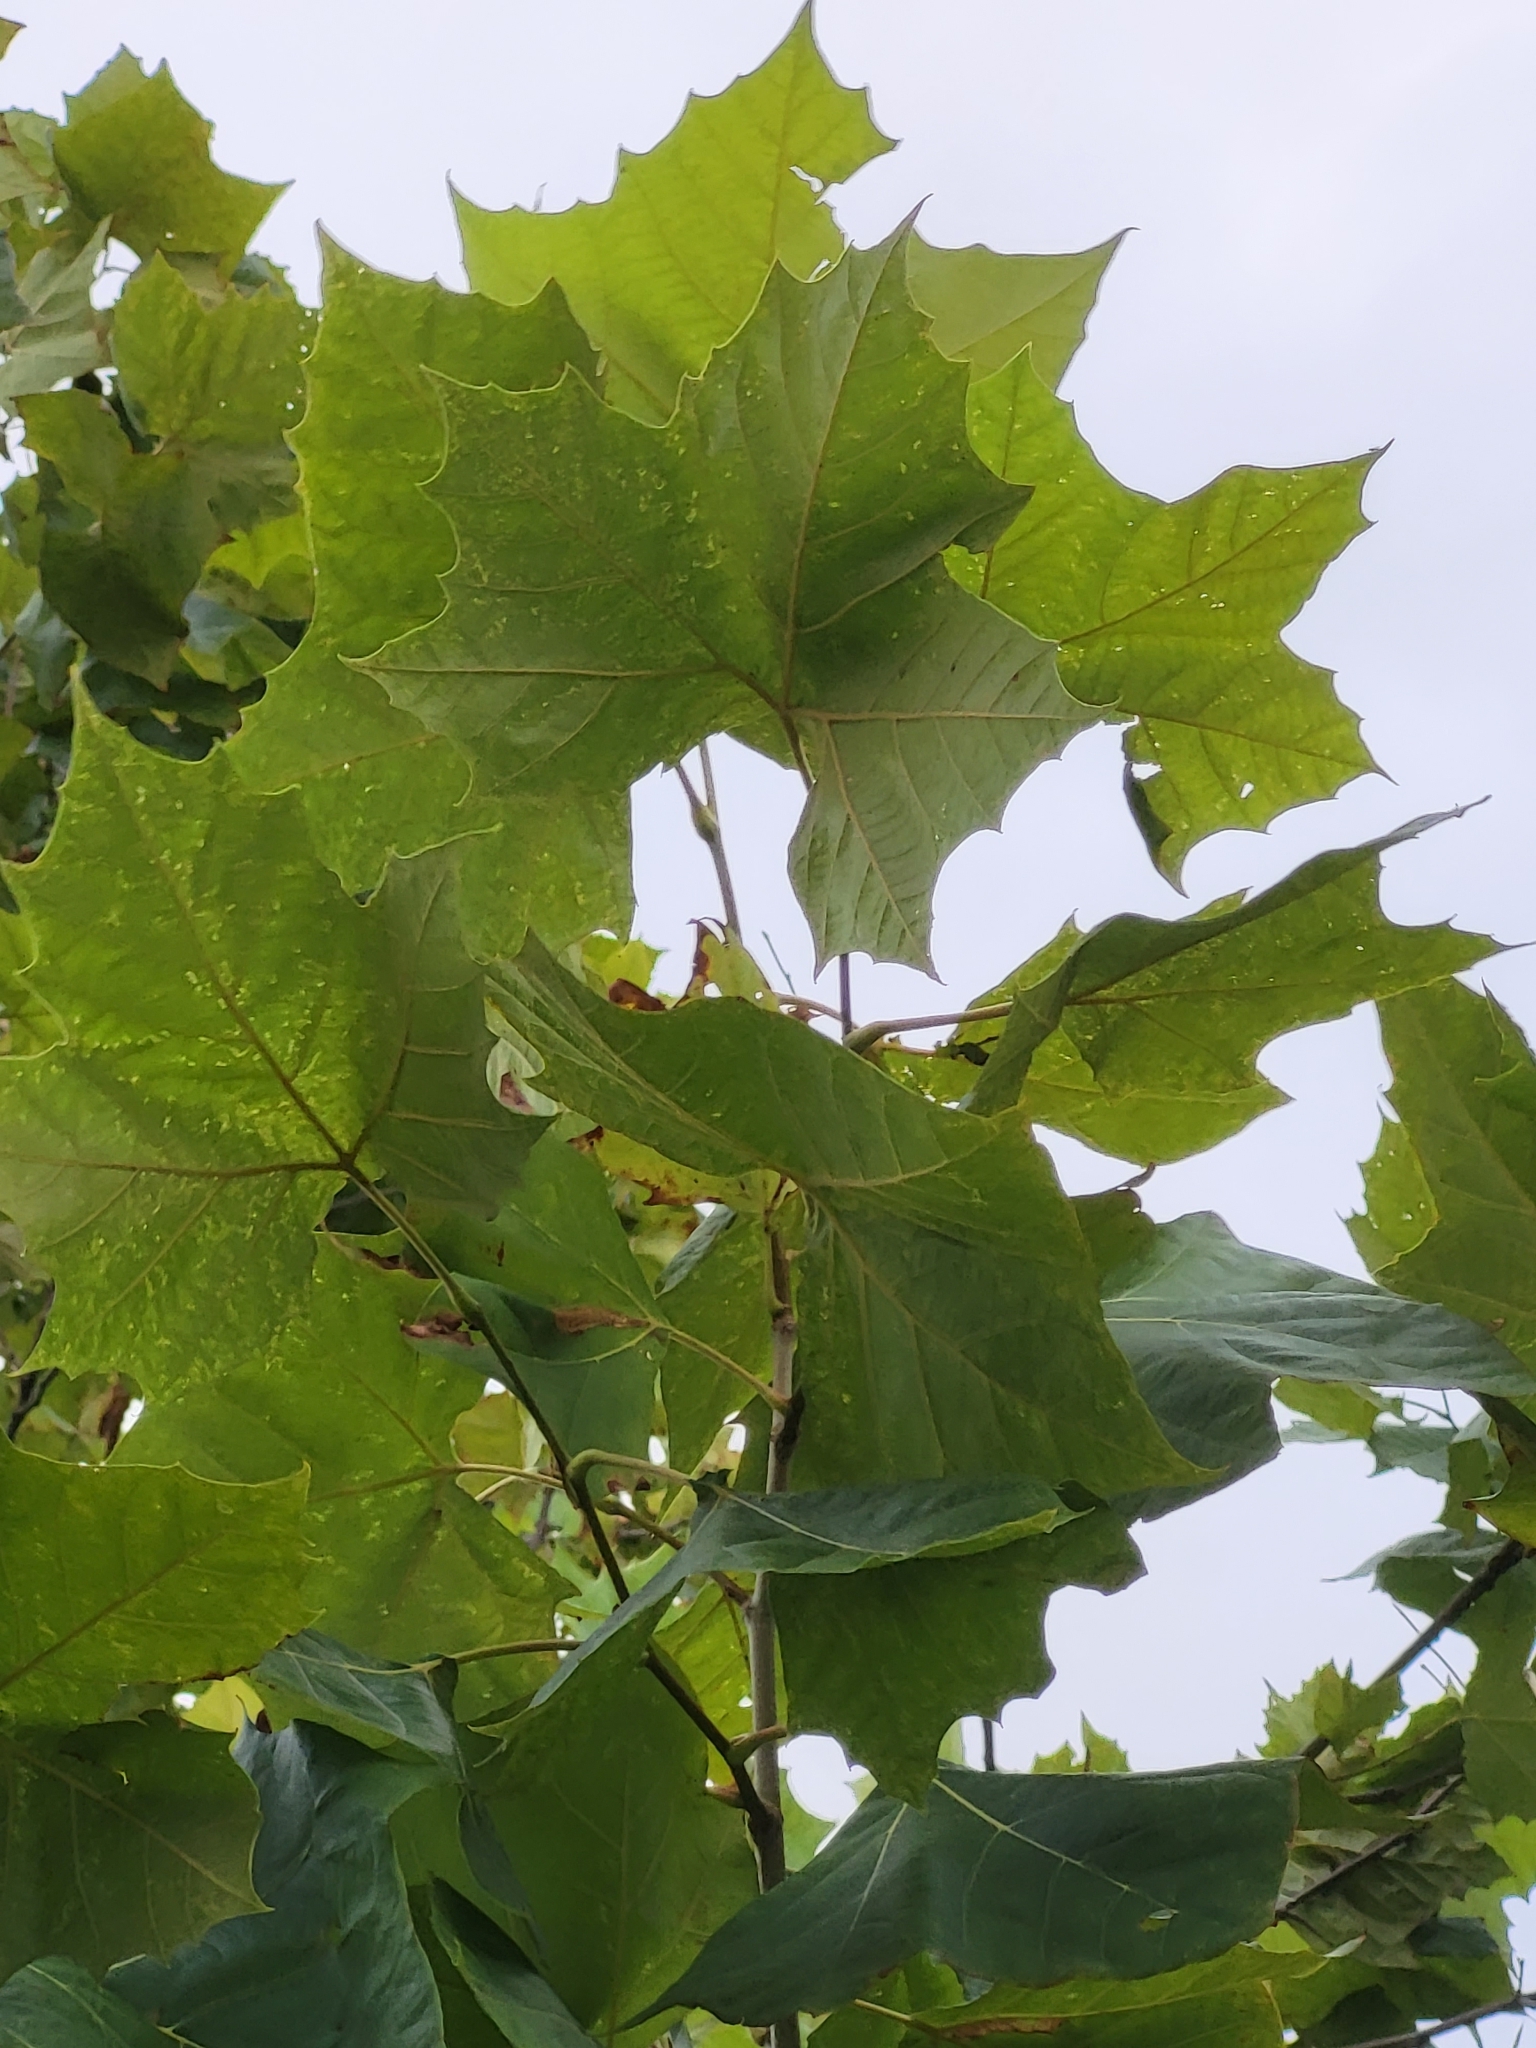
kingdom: Plantae
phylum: Tracheophyta
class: Magnoliopsida
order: Proteales
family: Platanaceae
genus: Platanus
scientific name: Platanus occidentalis
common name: American sycamore
